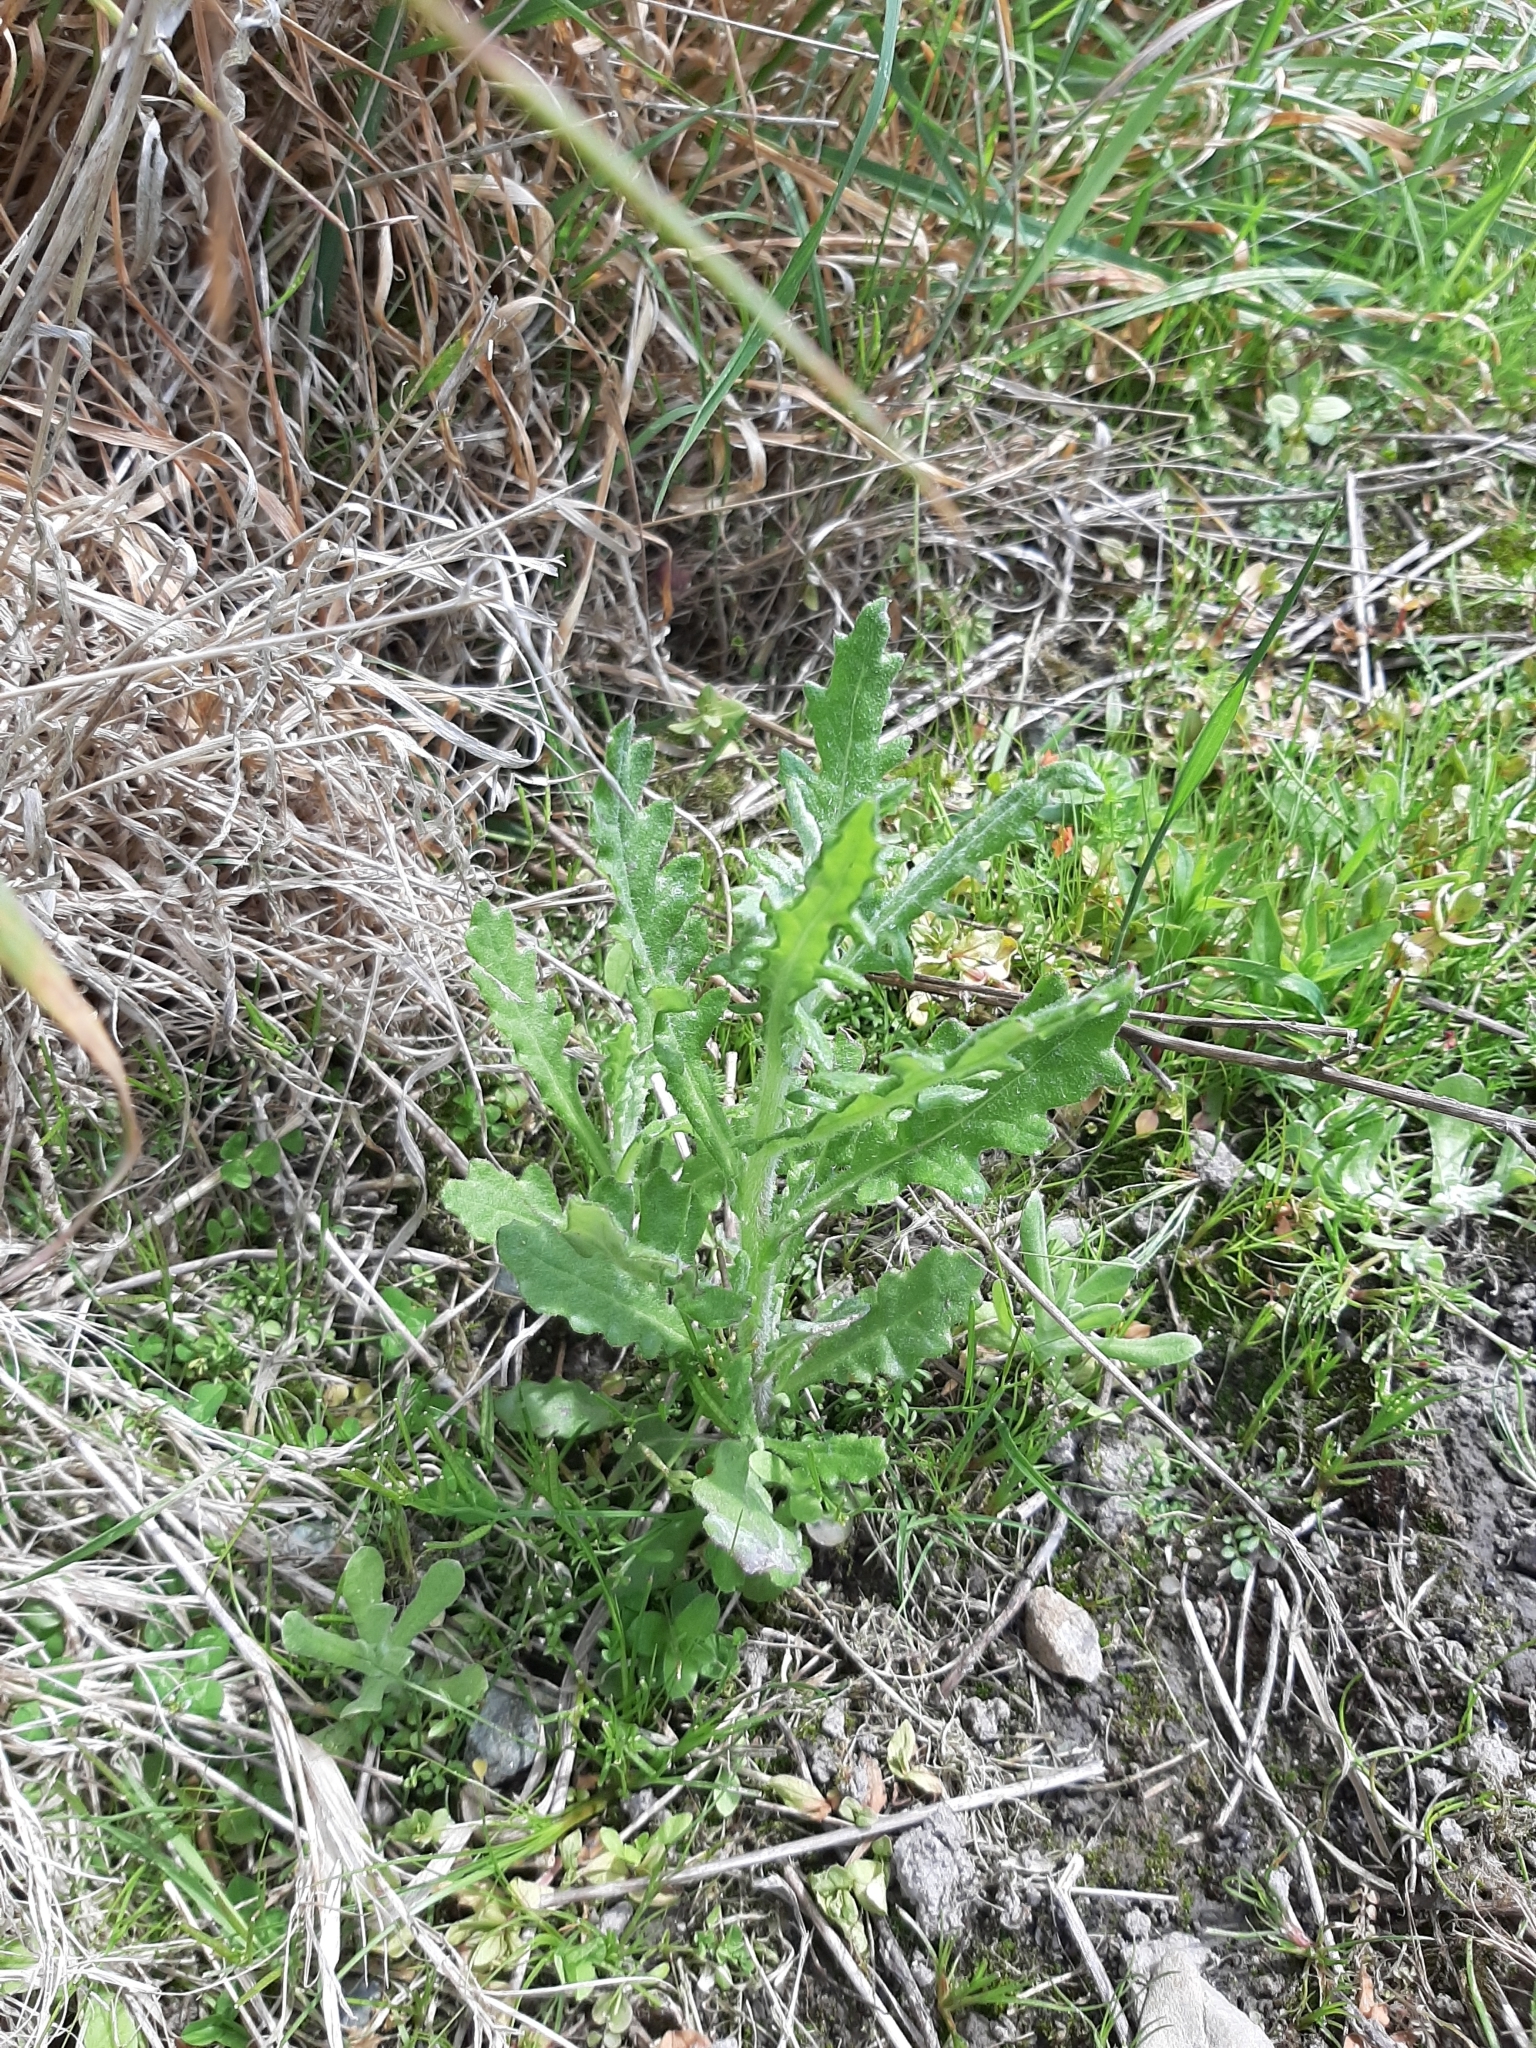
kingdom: Plantae
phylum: Tracheophyta
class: Magnoliopsida
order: Asterales
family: Asteraceae
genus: Senecio
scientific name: Senecio glomeratus
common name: Cutleaf burnweed
